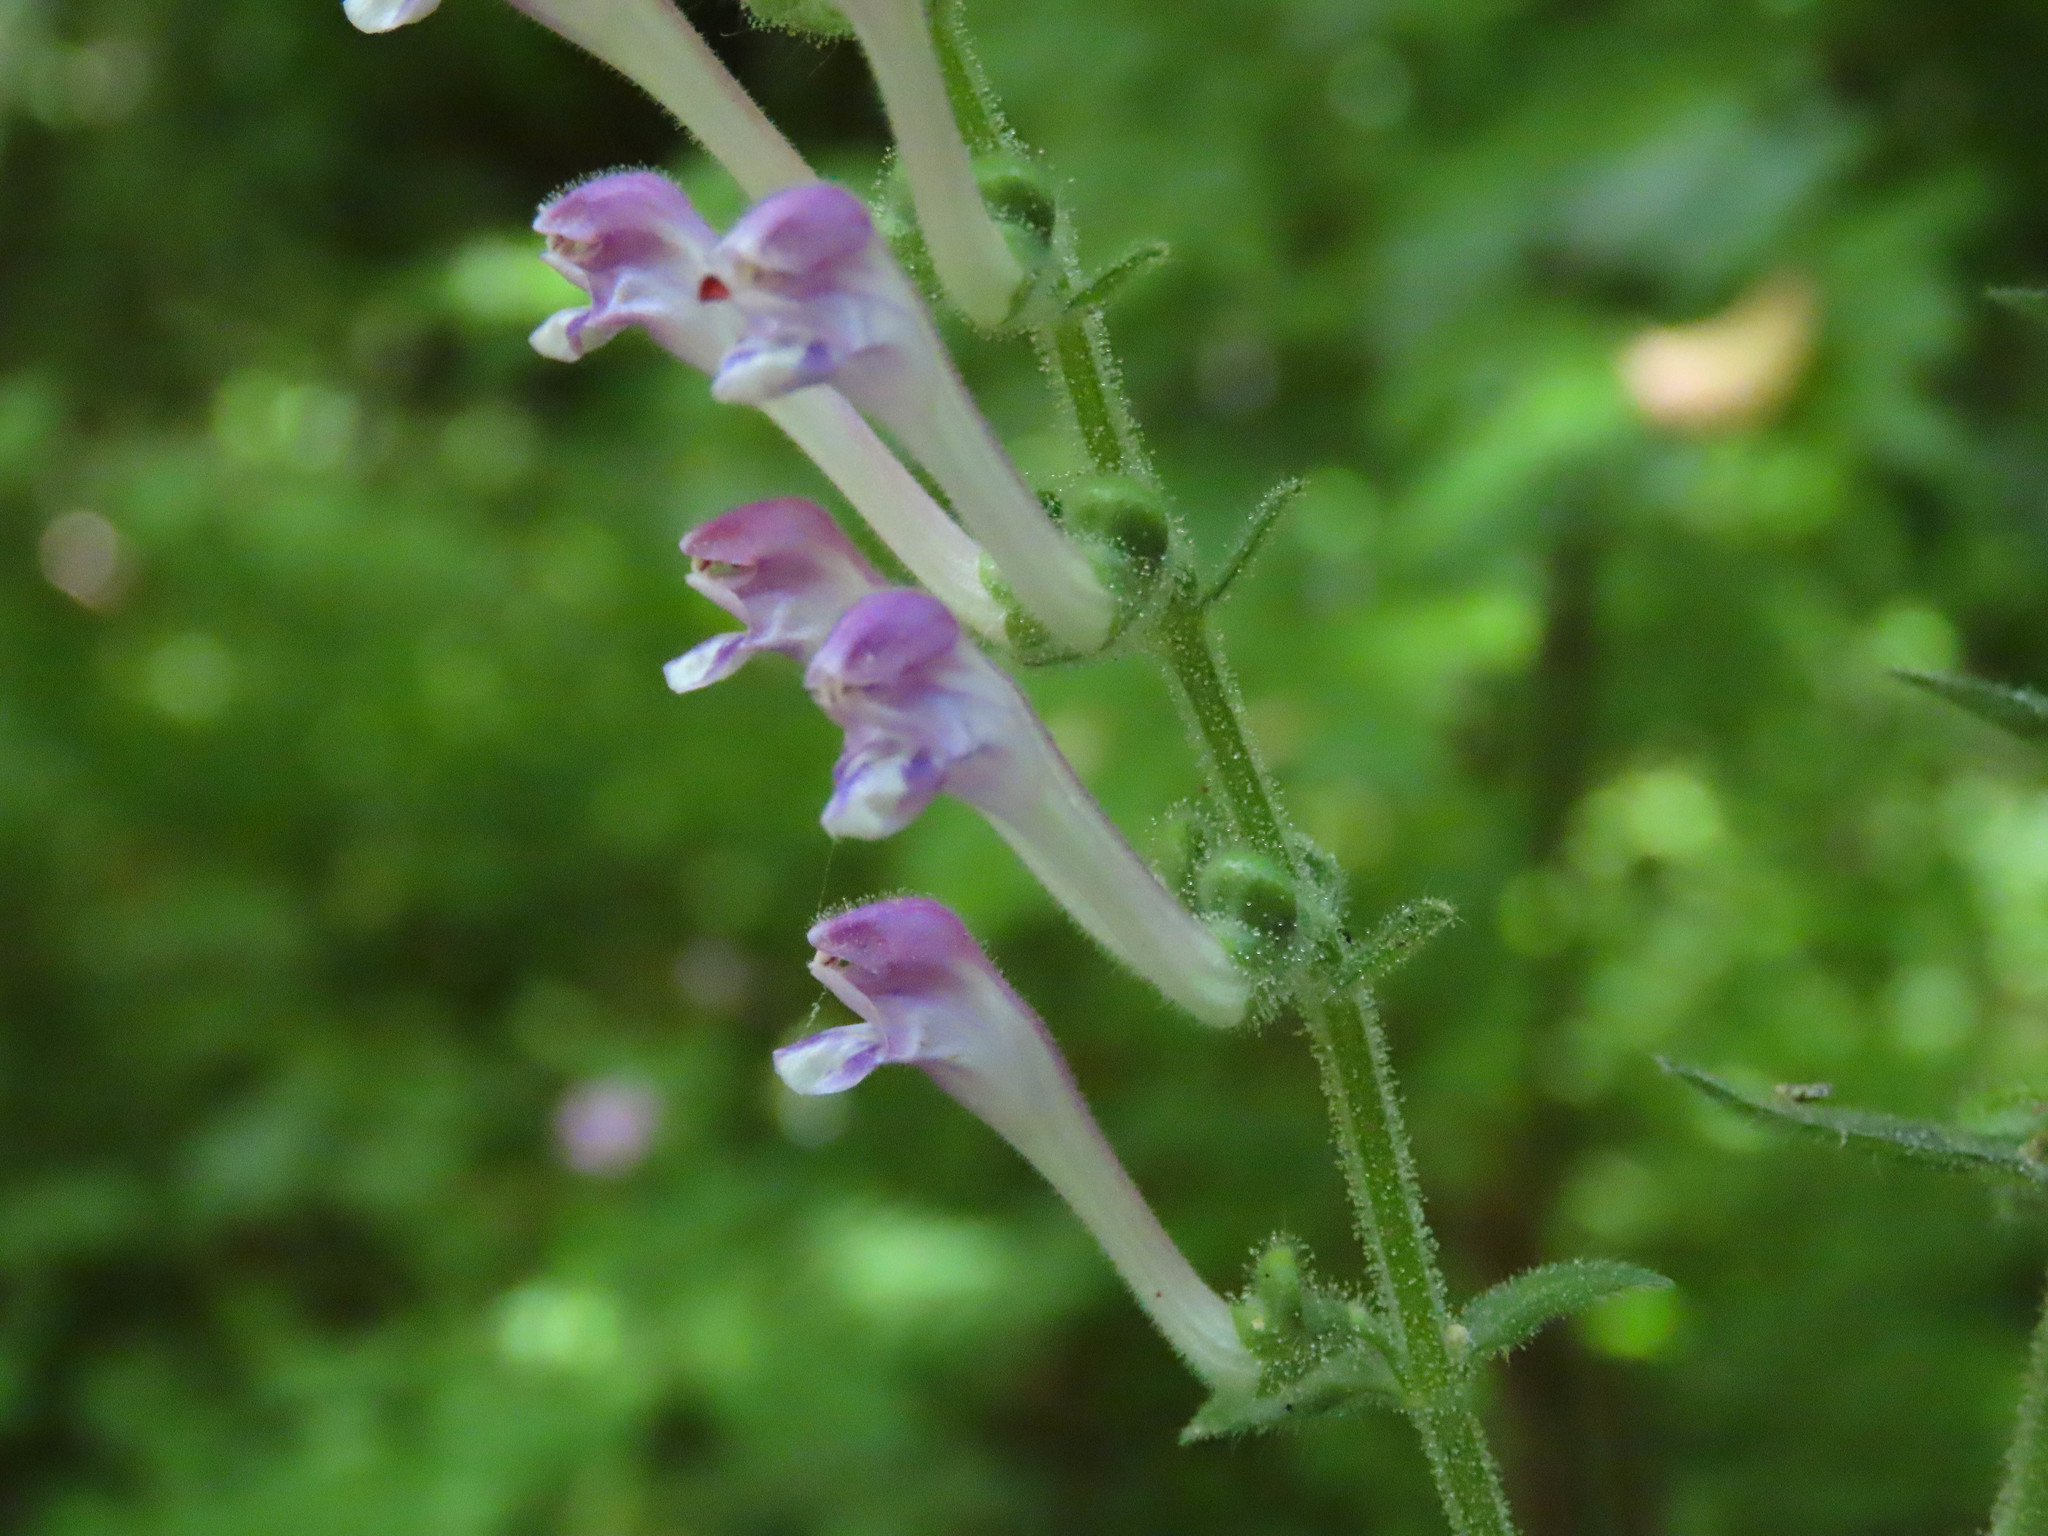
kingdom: Plantae
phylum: Tracheophyta
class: Magnoliopsida
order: Lamiales
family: Lamiaceae
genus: Scutellaria
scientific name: Scutellaria columnae
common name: Large skullcap
